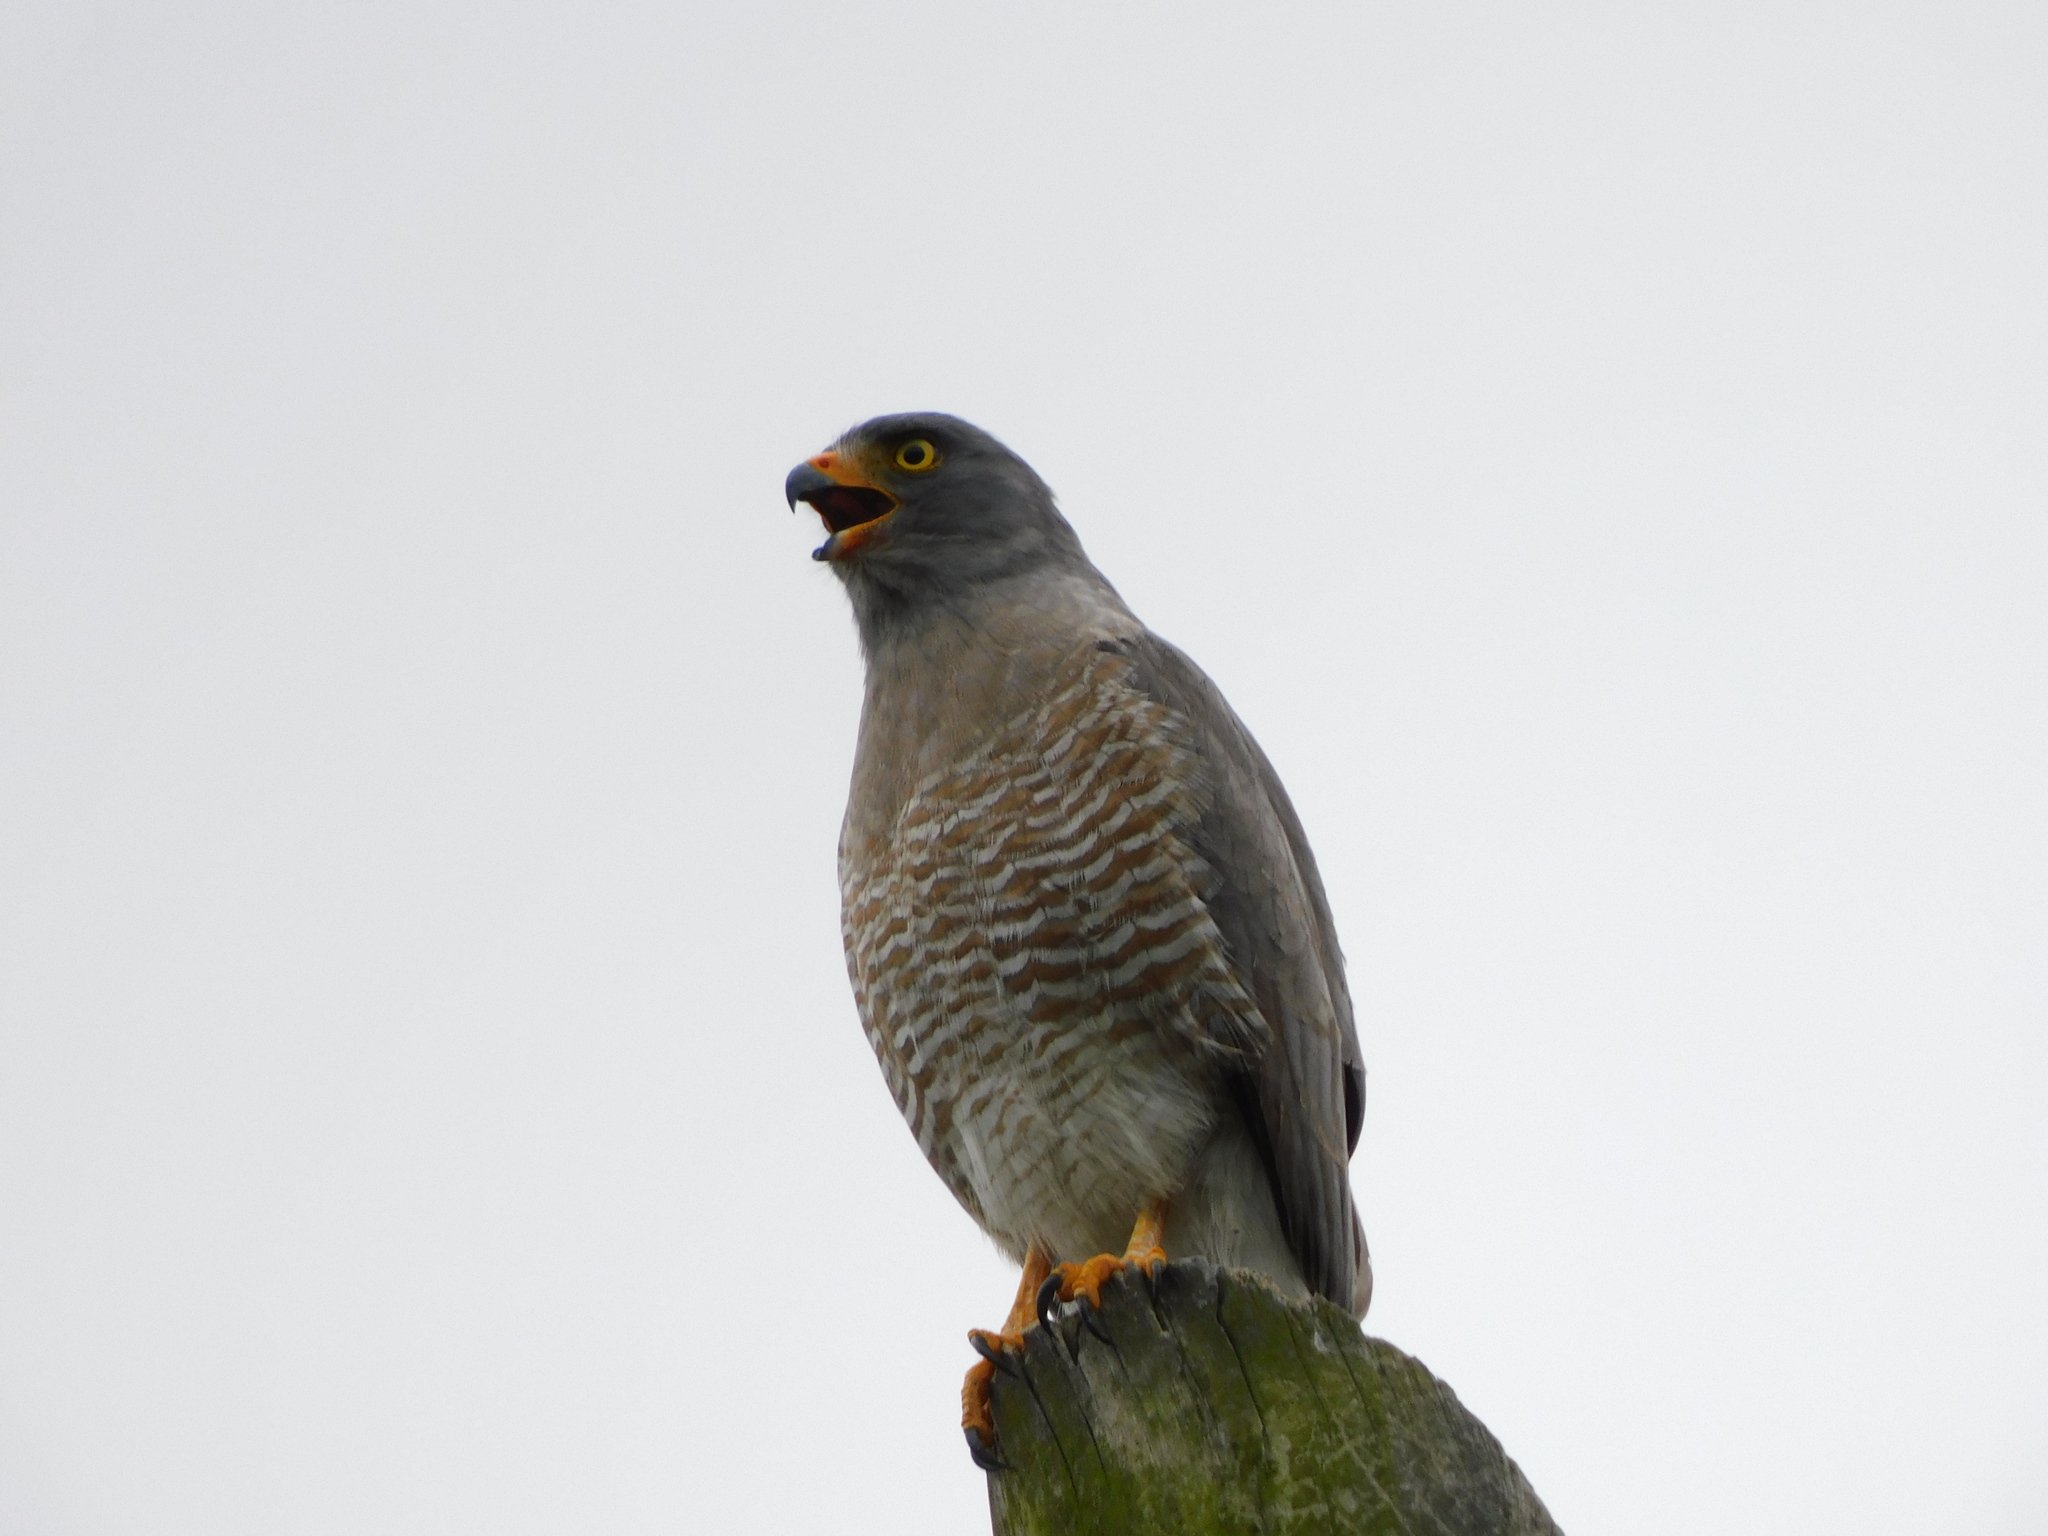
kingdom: Animalia
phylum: Chordata
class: Aves
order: Accipitriformes
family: Accipitridae
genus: Rupornis
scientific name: Rupornis magnirostris
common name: Roadside hawk
